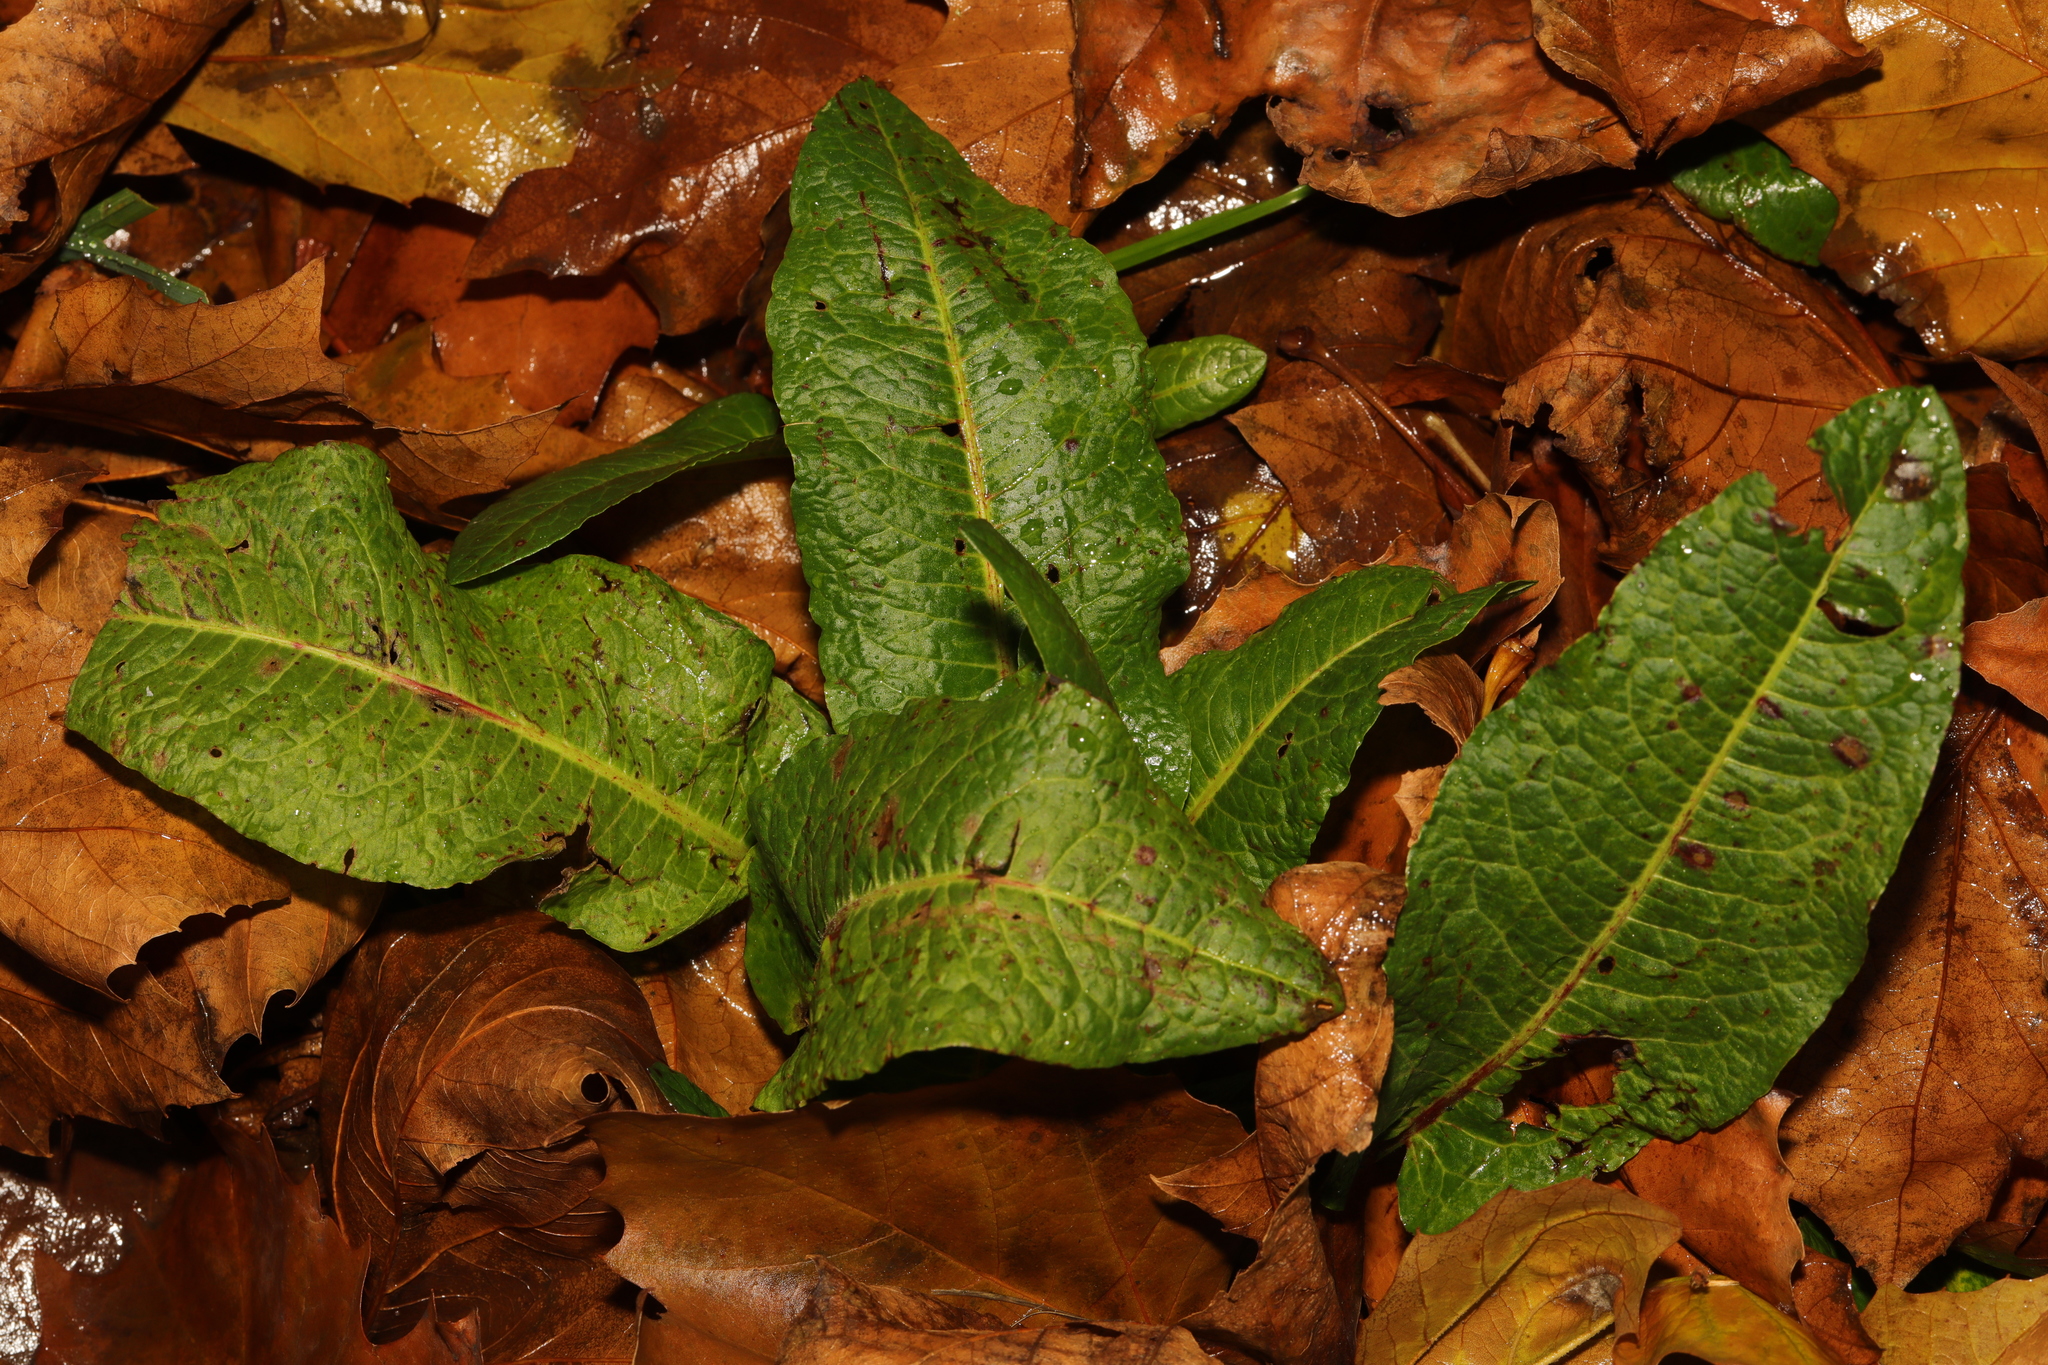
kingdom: Plantae
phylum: Tracheophyta
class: Magnoliopsida
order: Caryophyllales
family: Polygonaceae
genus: Rumex
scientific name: Rumex obtusifolius
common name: Bitter dock
